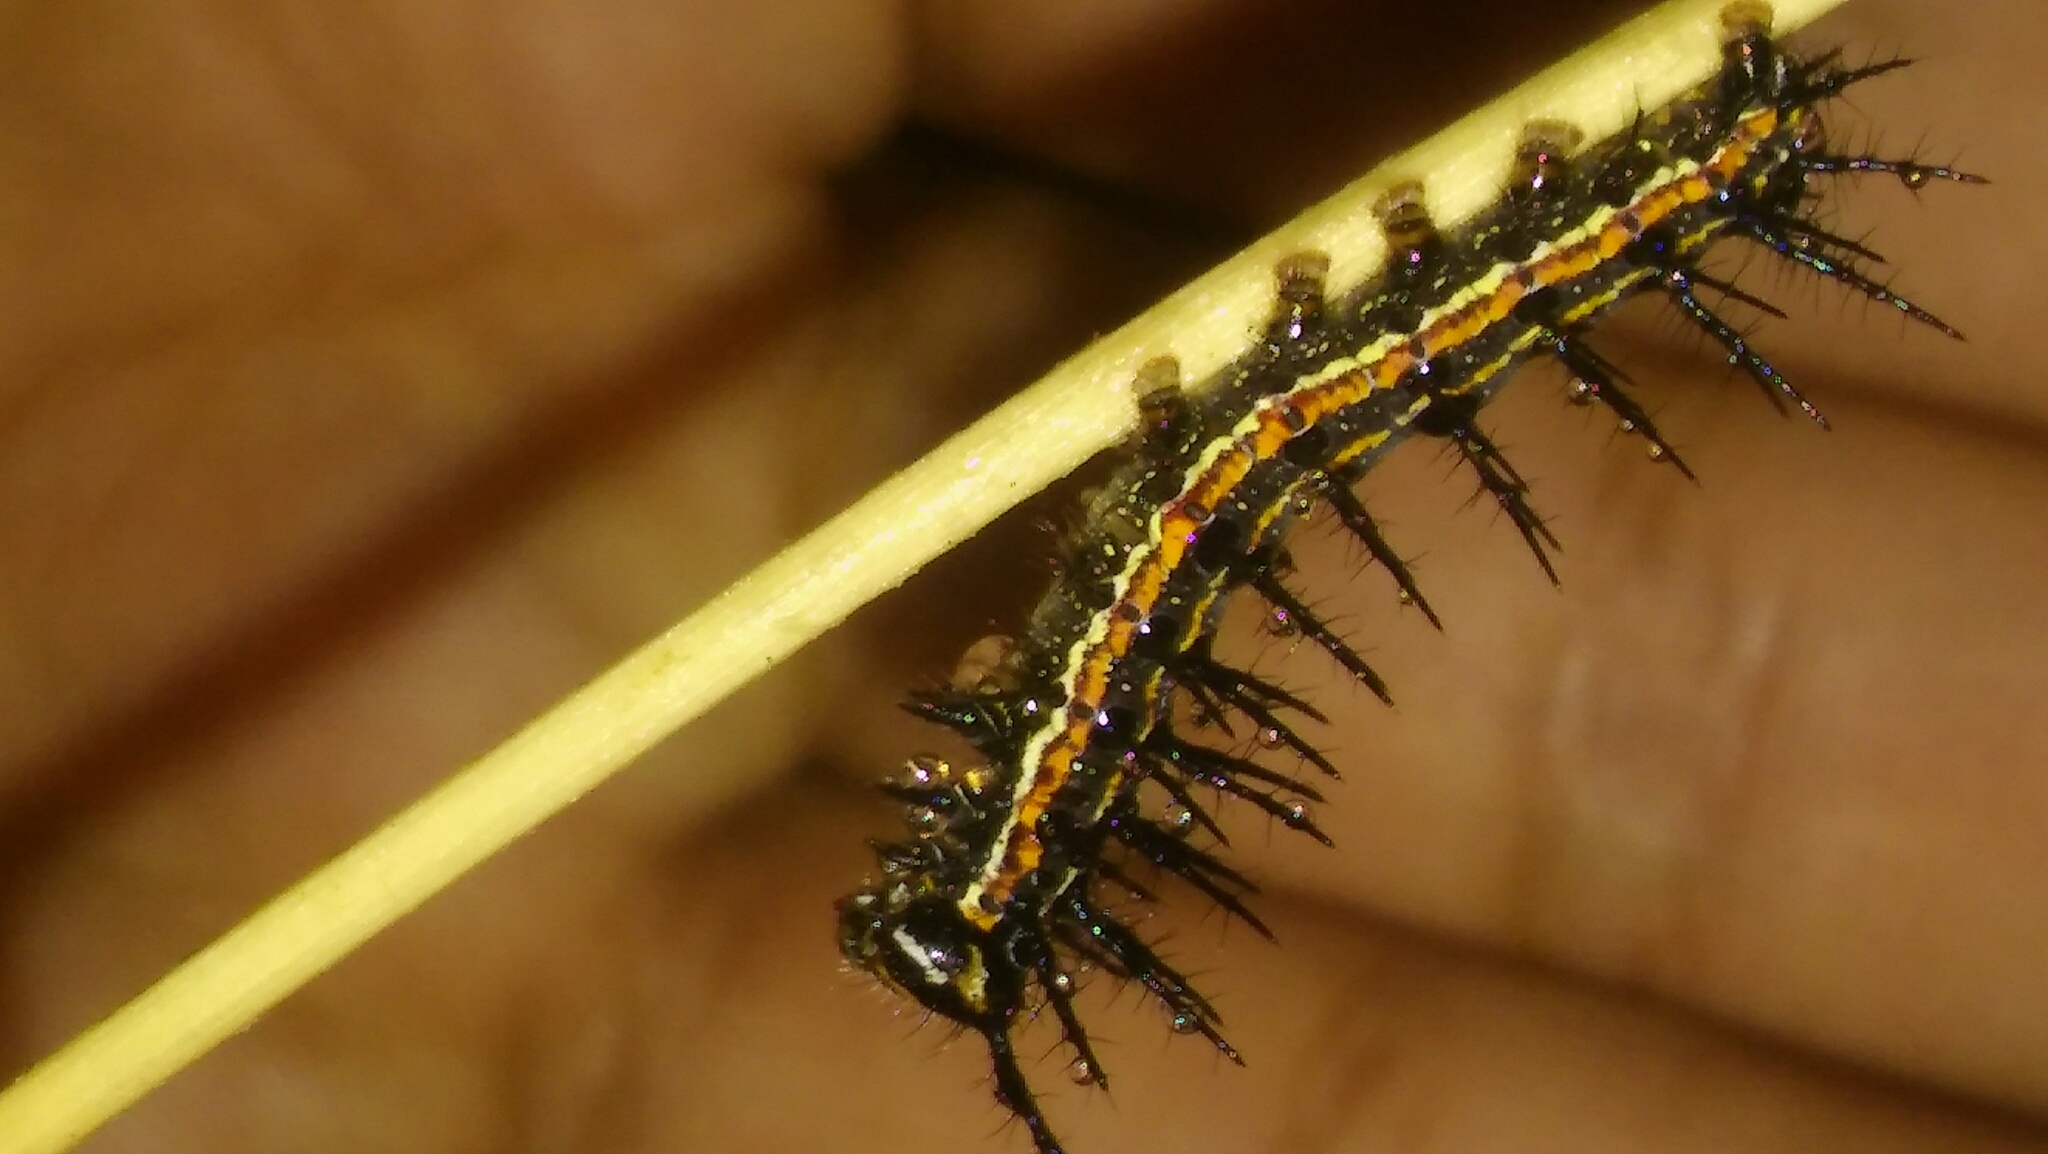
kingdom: Animalia
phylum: Arthropoda
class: Insecta
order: Lepidoptera
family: Nymphalidae
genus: Dione
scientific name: Dione vanillae
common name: Gulf fritillary
